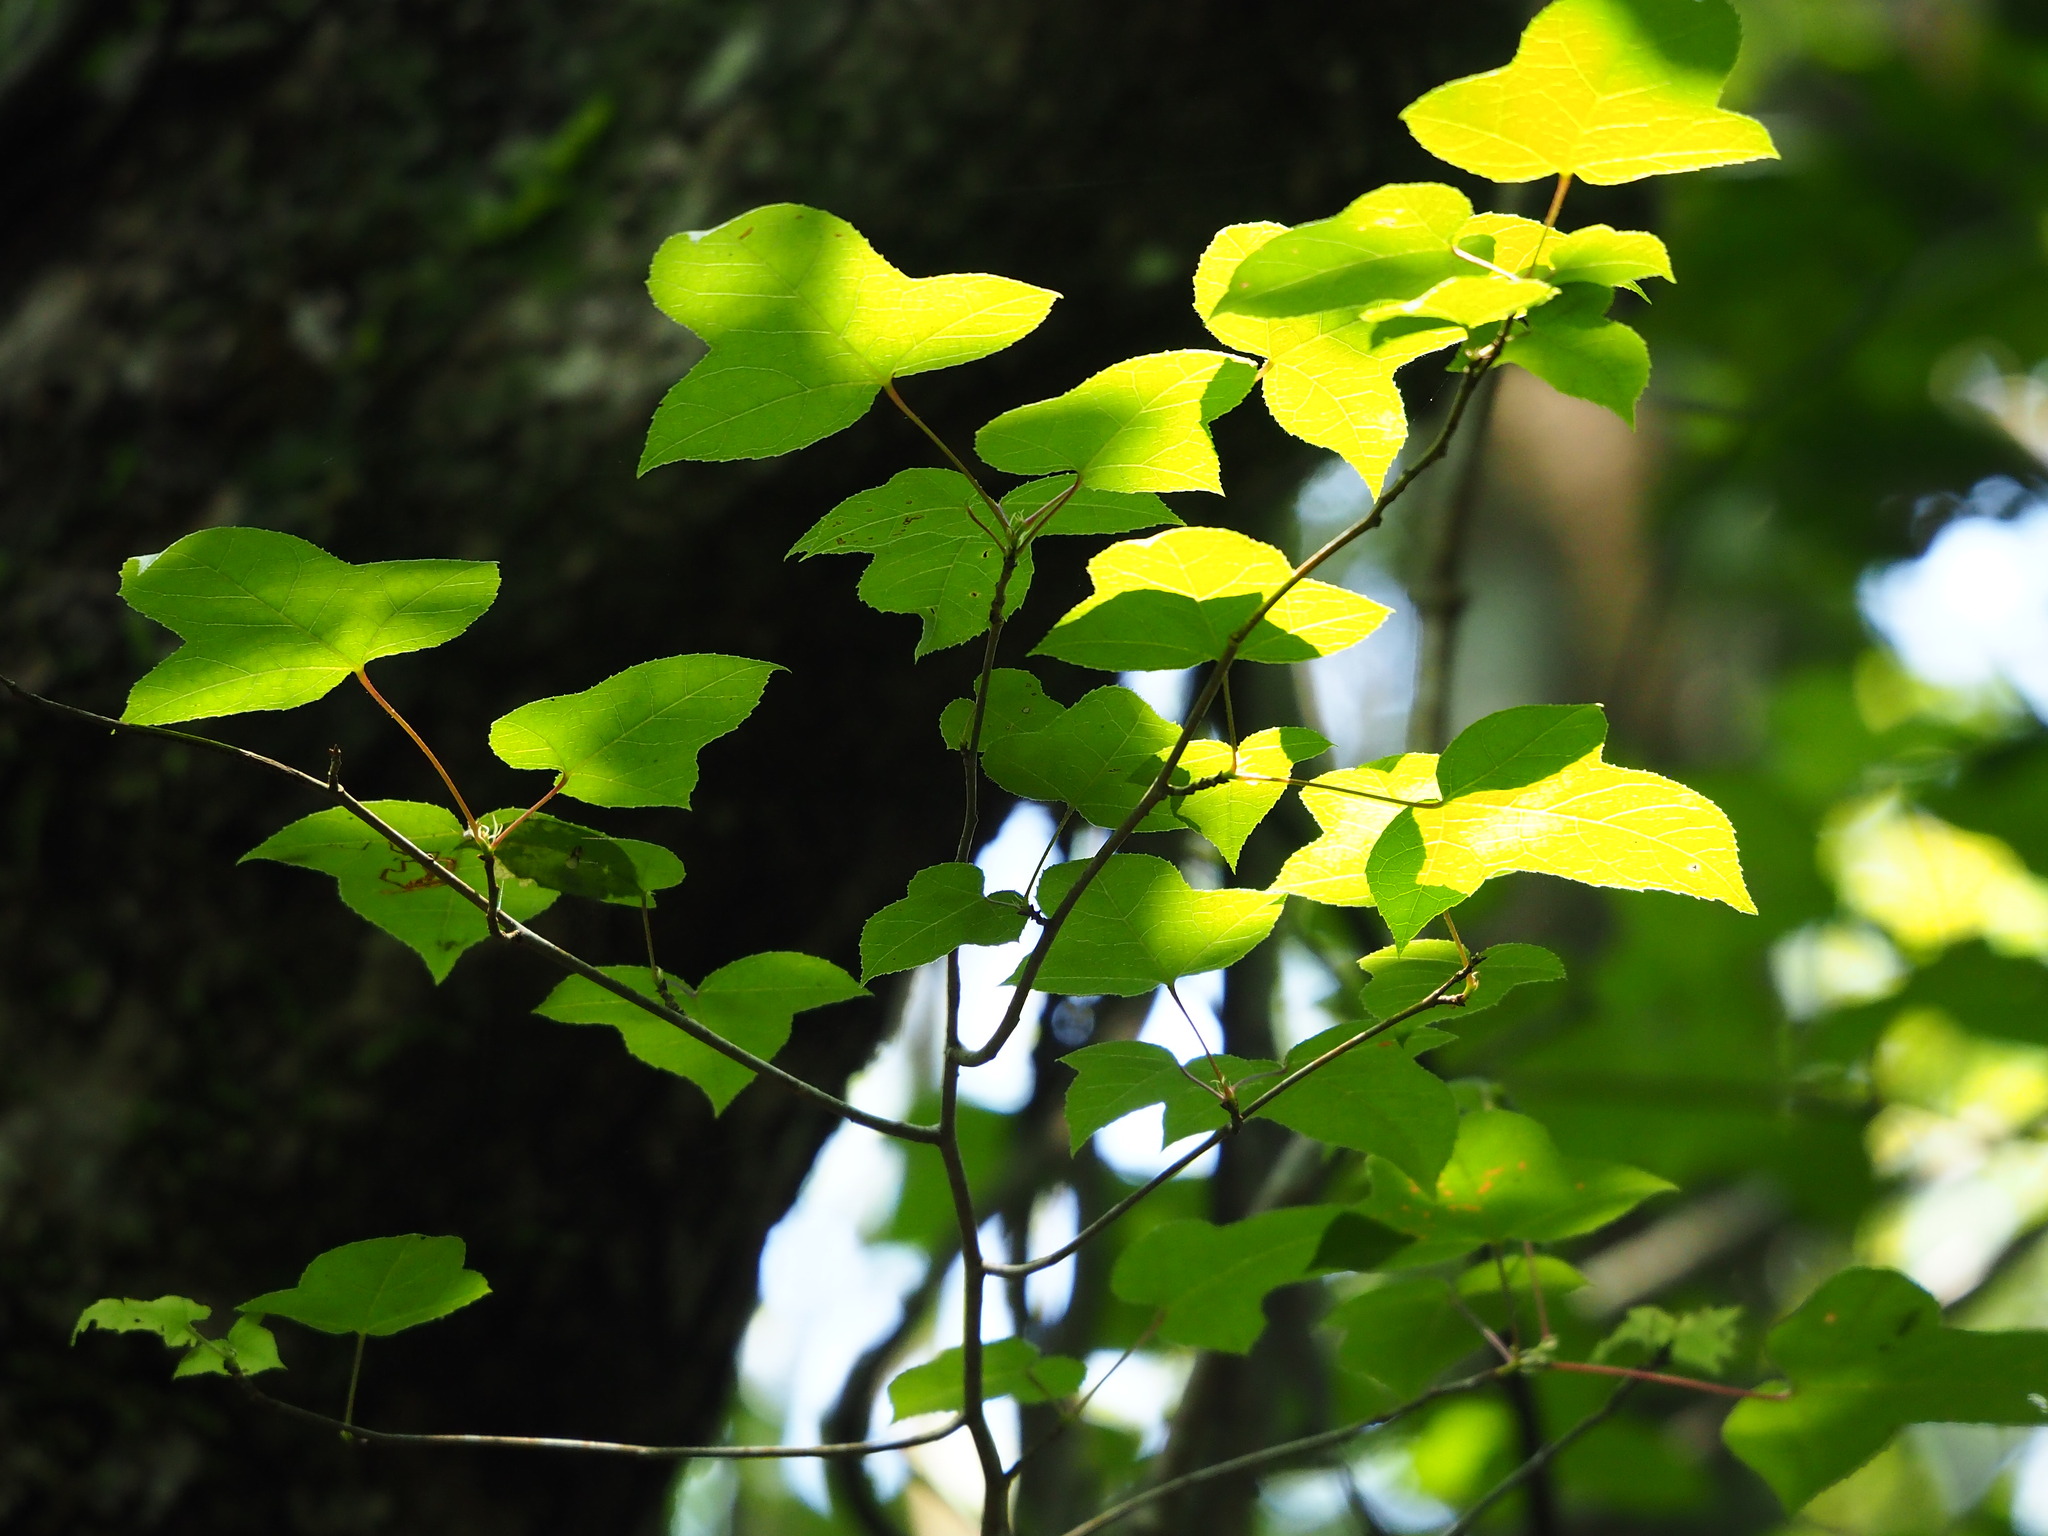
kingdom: Plantae
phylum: Tracheophyta
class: Magnoliopsida
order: Saxifragales
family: Altingiaceae
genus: Liquidambar
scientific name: Liquidambar formosana
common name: Chinese sweet gum
